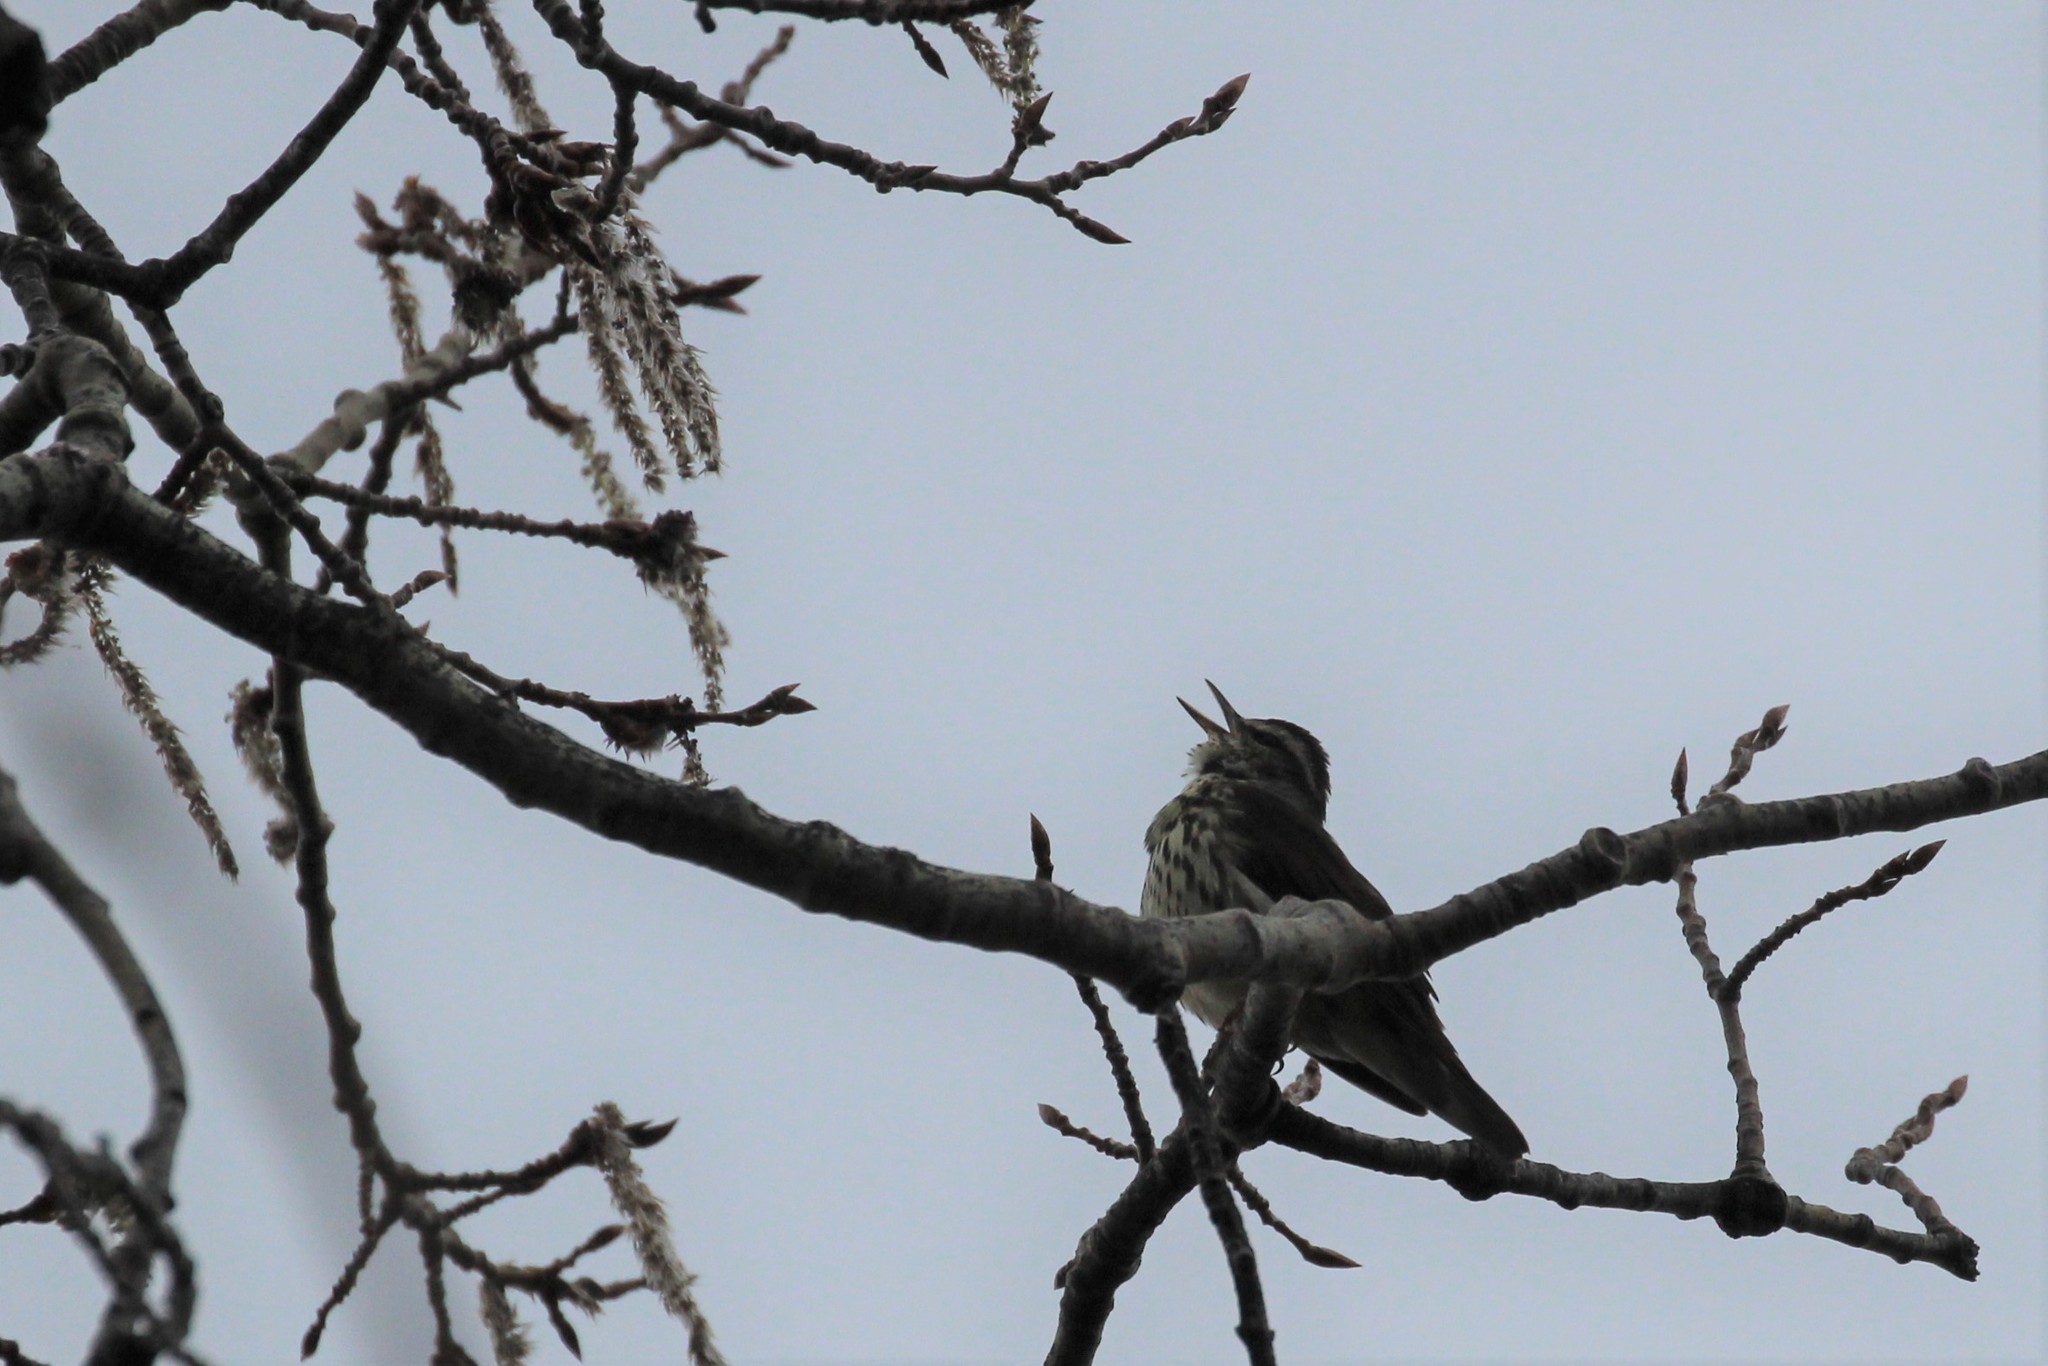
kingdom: Animalia
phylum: Chordata
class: Aves
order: Passeriformes
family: Parulidae
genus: Parkesia
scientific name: Parkesia noveboracensis
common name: Northern waterthrush
